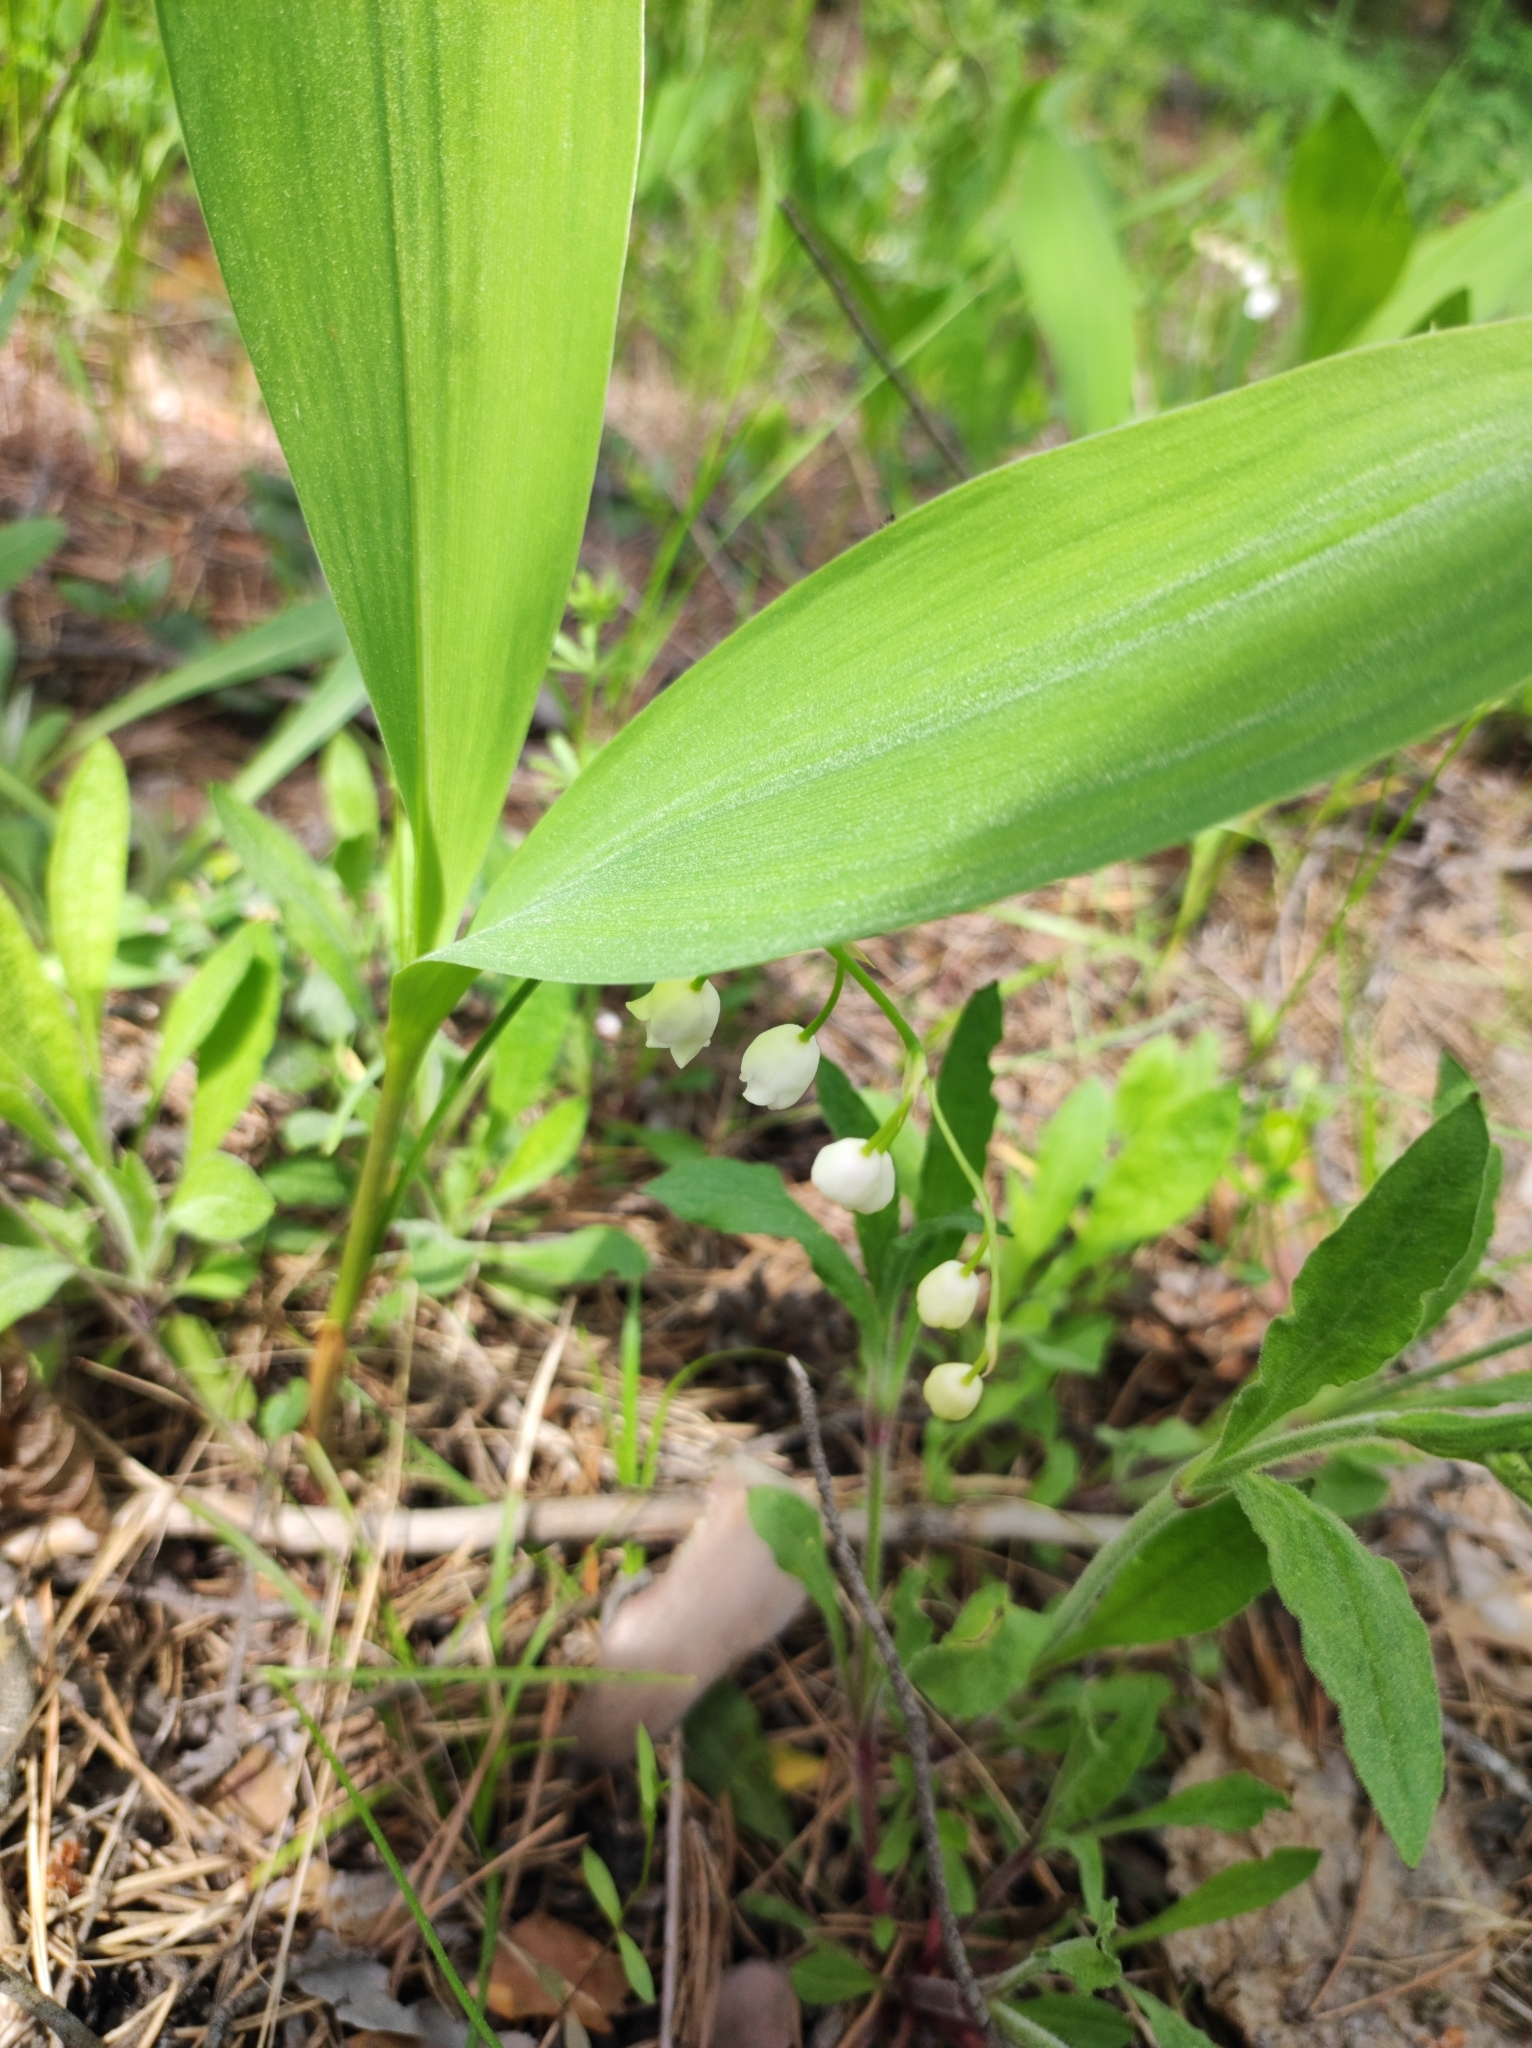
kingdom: Plantae
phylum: Tracheophyta
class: Liliopsida
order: Asparagales
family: Asparagaceae
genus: Convallaria
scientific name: Convallaria majalis
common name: Lily-of-the-valley
